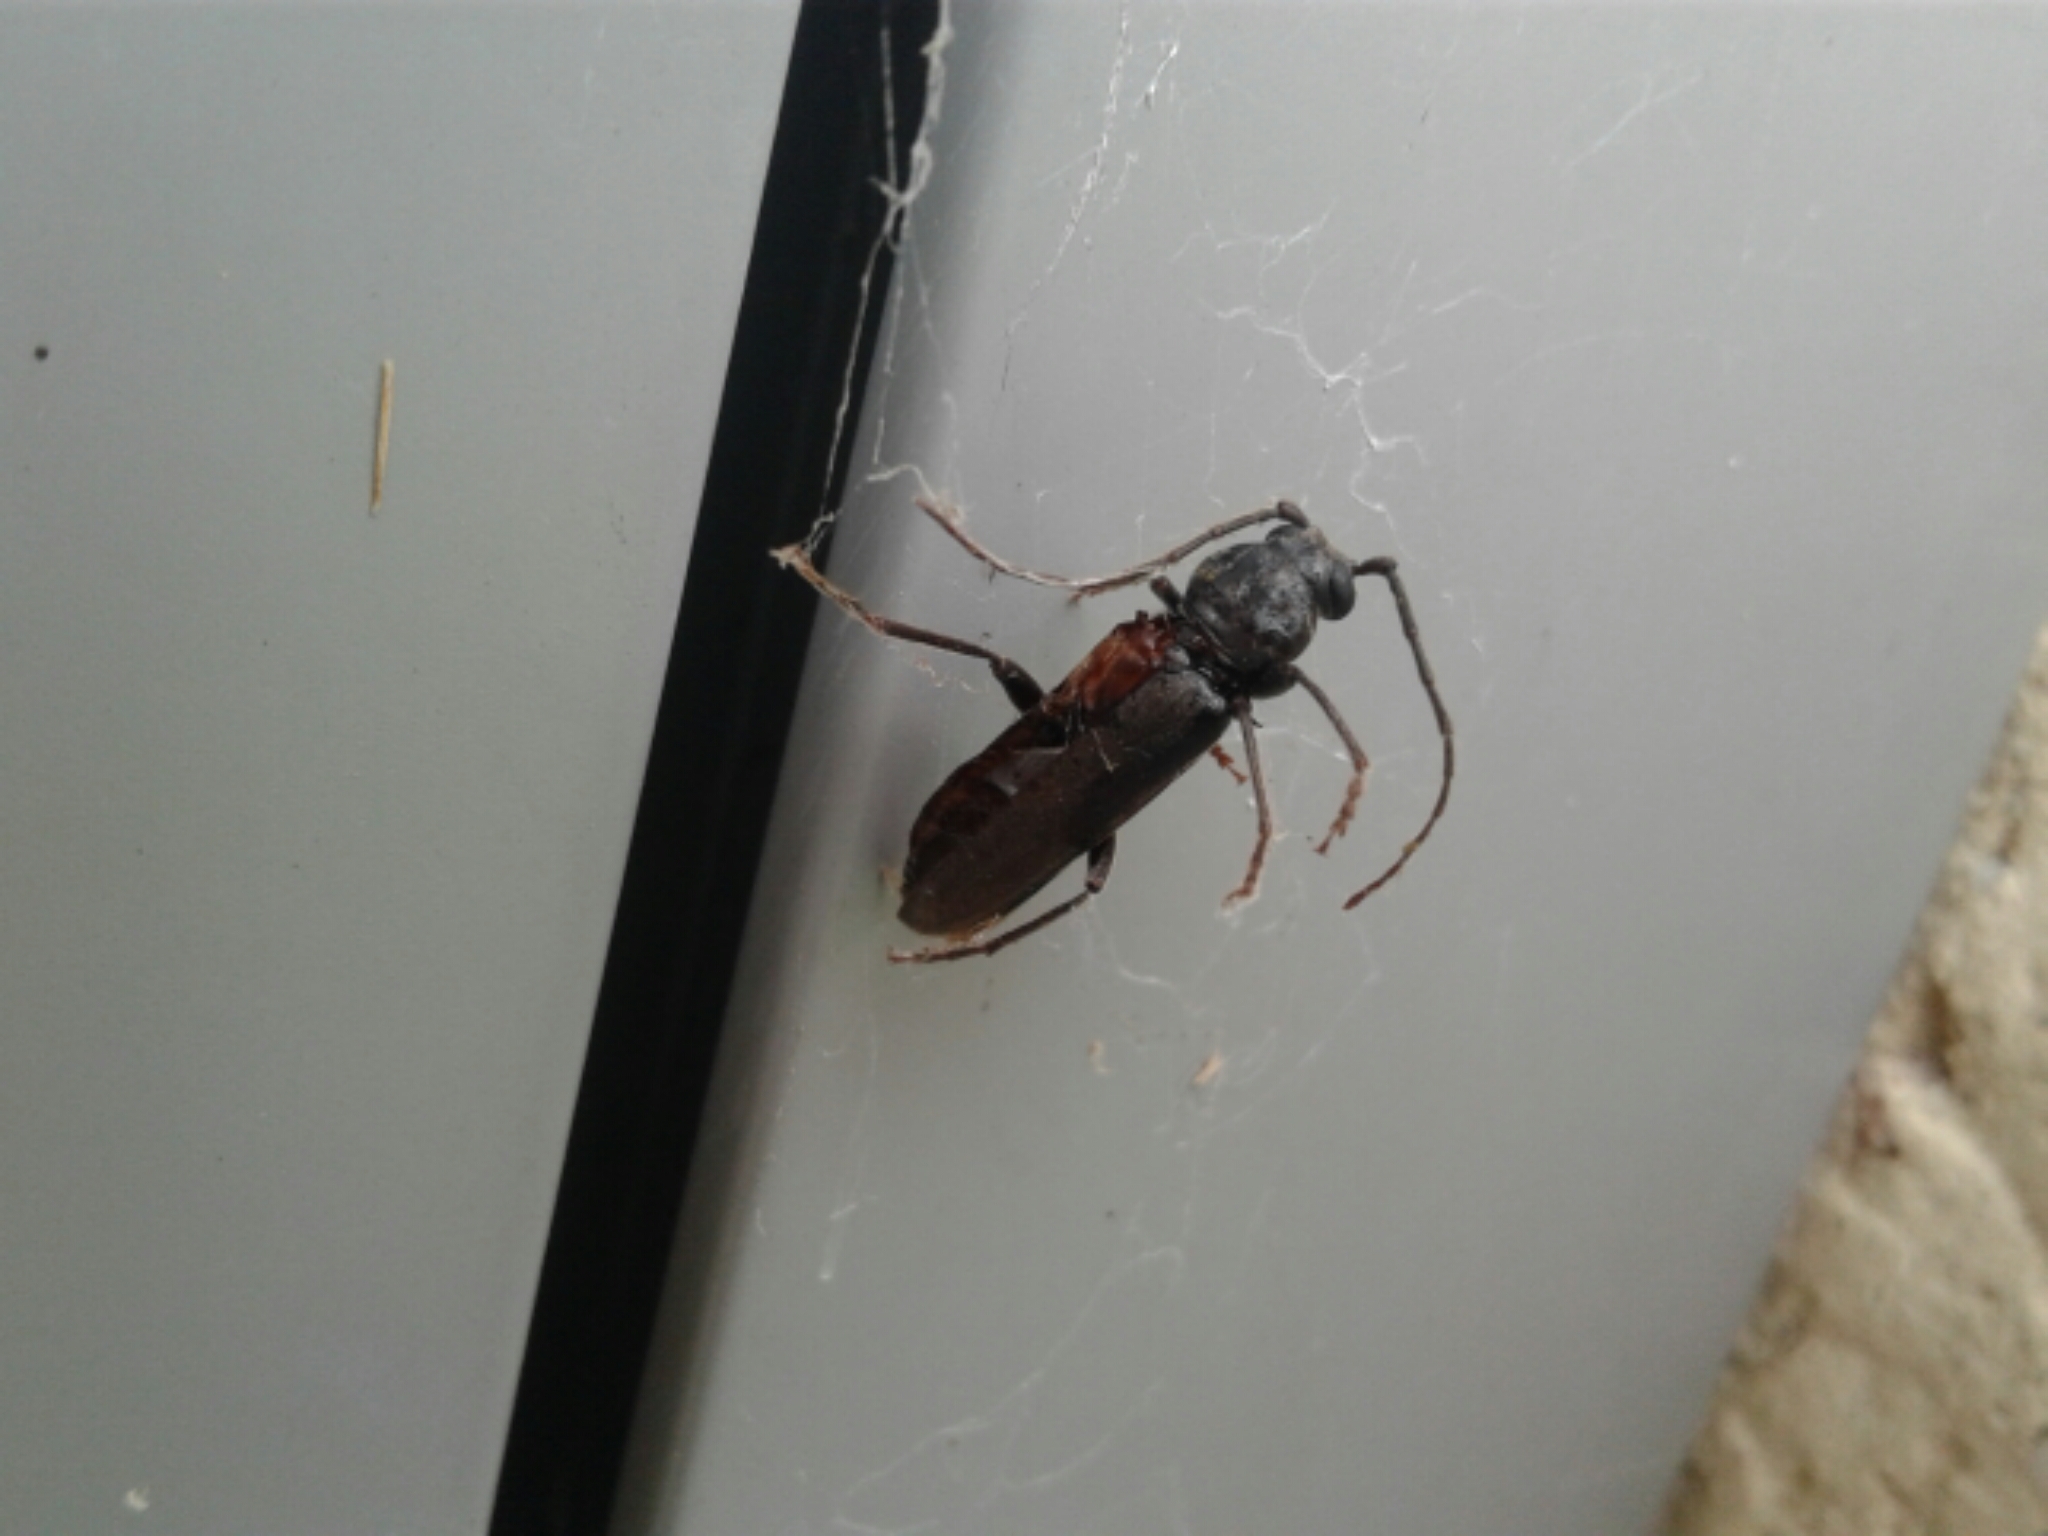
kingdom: Animalia
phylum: Arthropoda
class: Insecta
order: Coleoptera
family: Cerambycidae
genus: Arhopalus
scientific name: Arhopalus ferus
